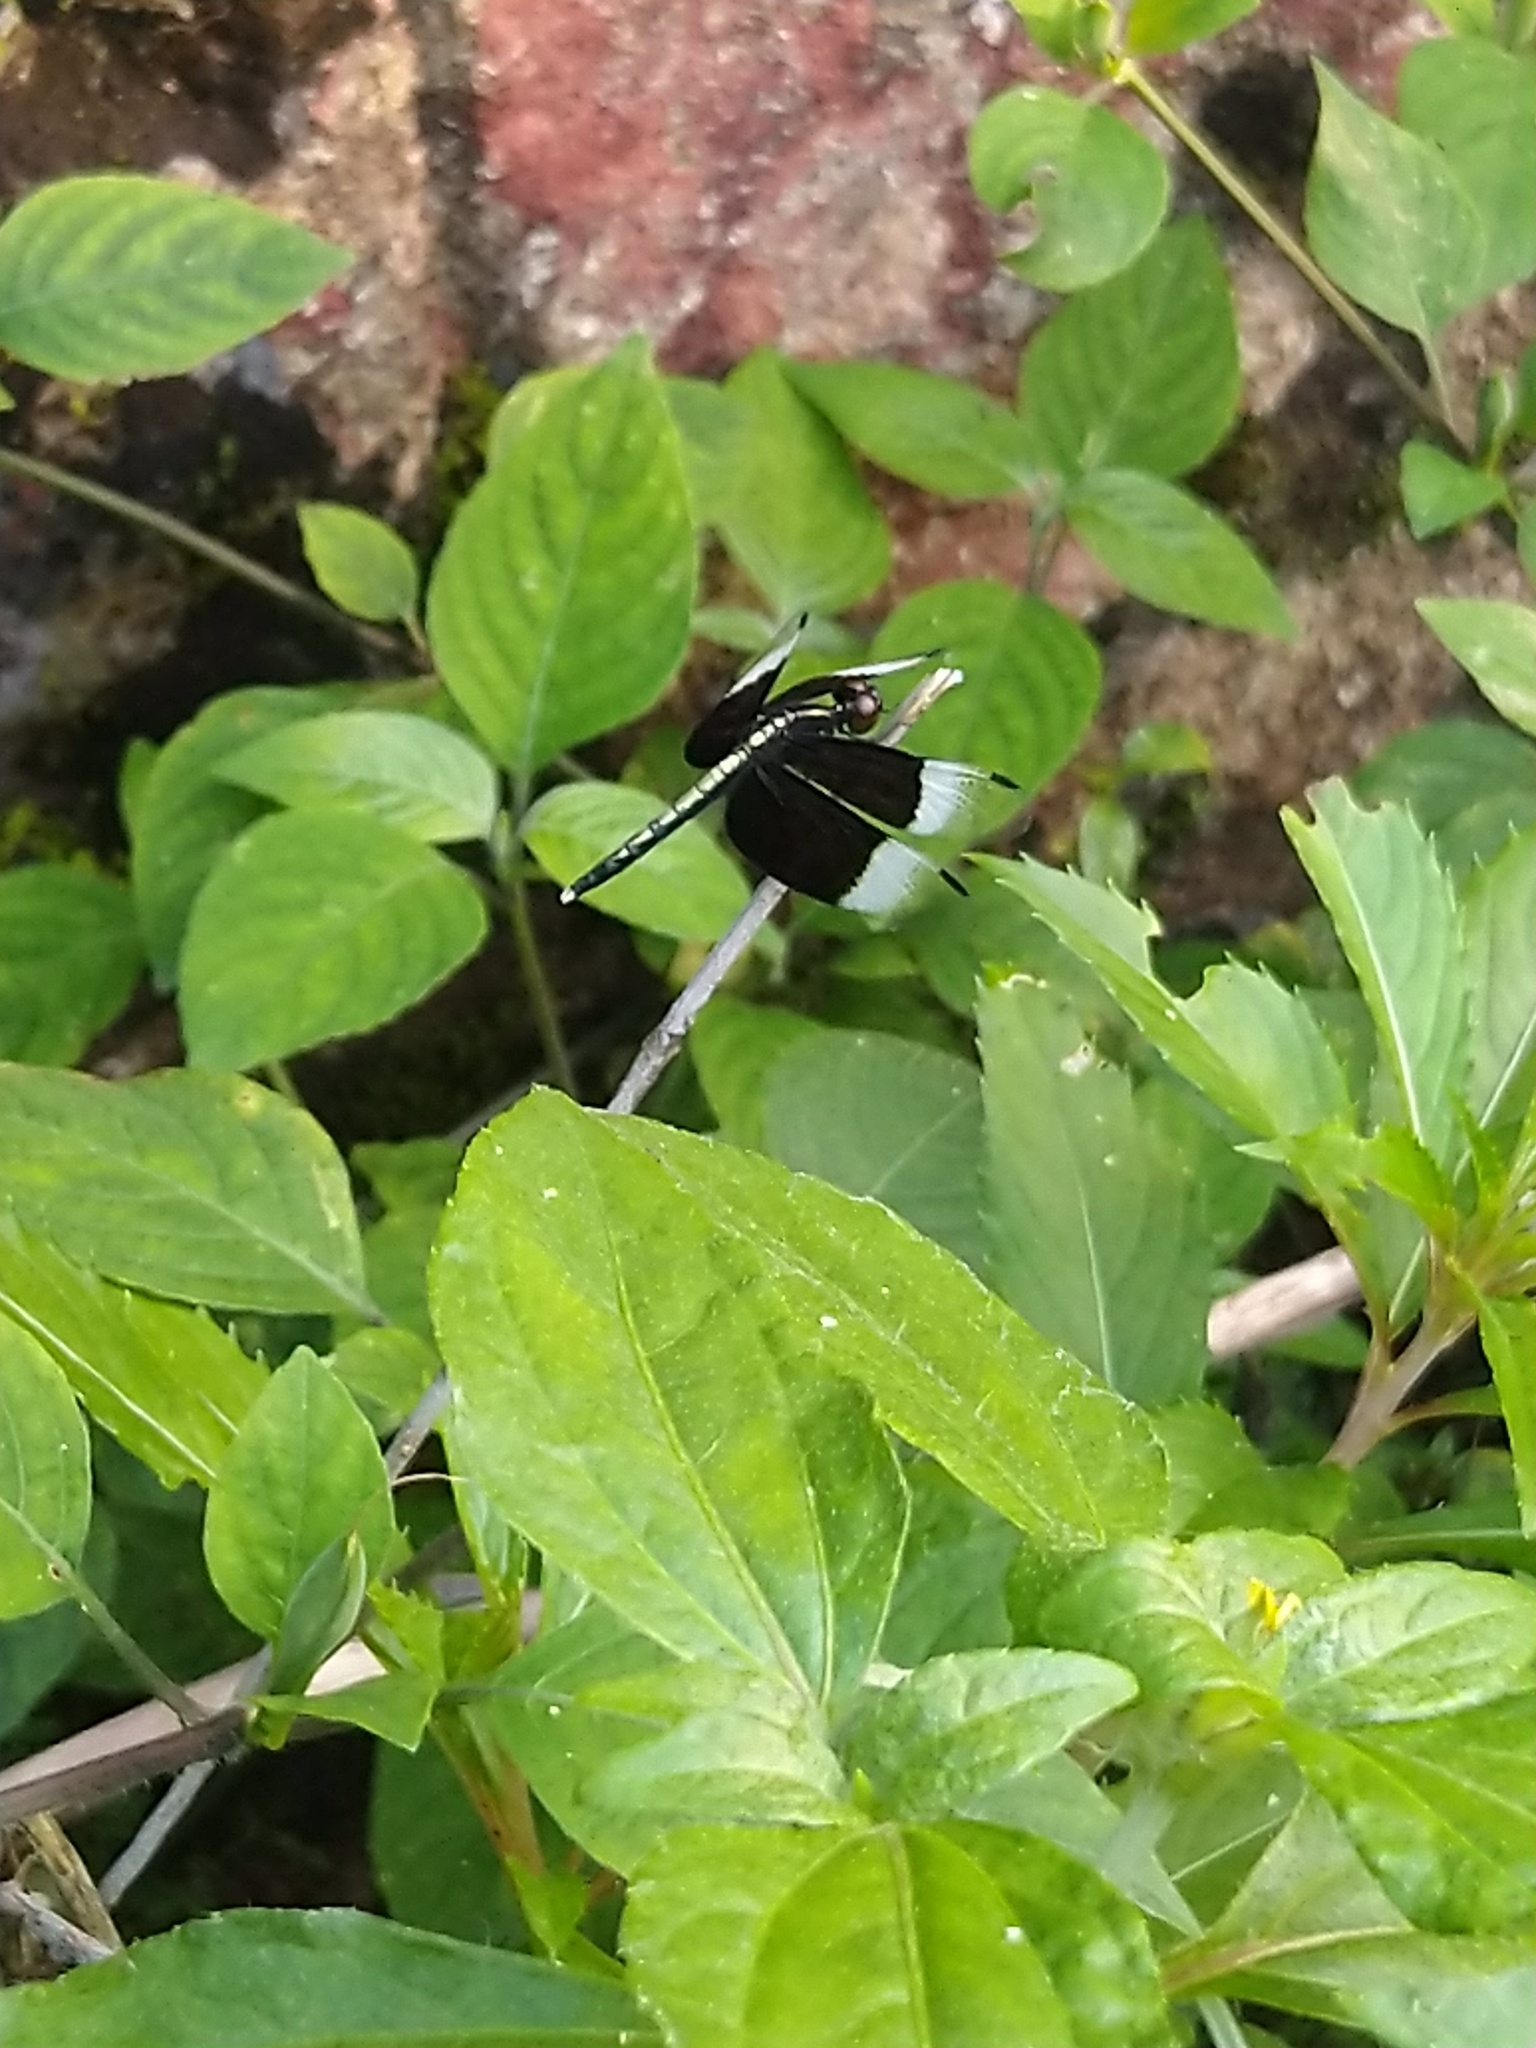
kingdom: Animalia
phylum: Arthropoda
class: Insecta
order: Odonata
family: Libellulidae
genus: Neurothemis
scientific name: Neurothemis tullia
